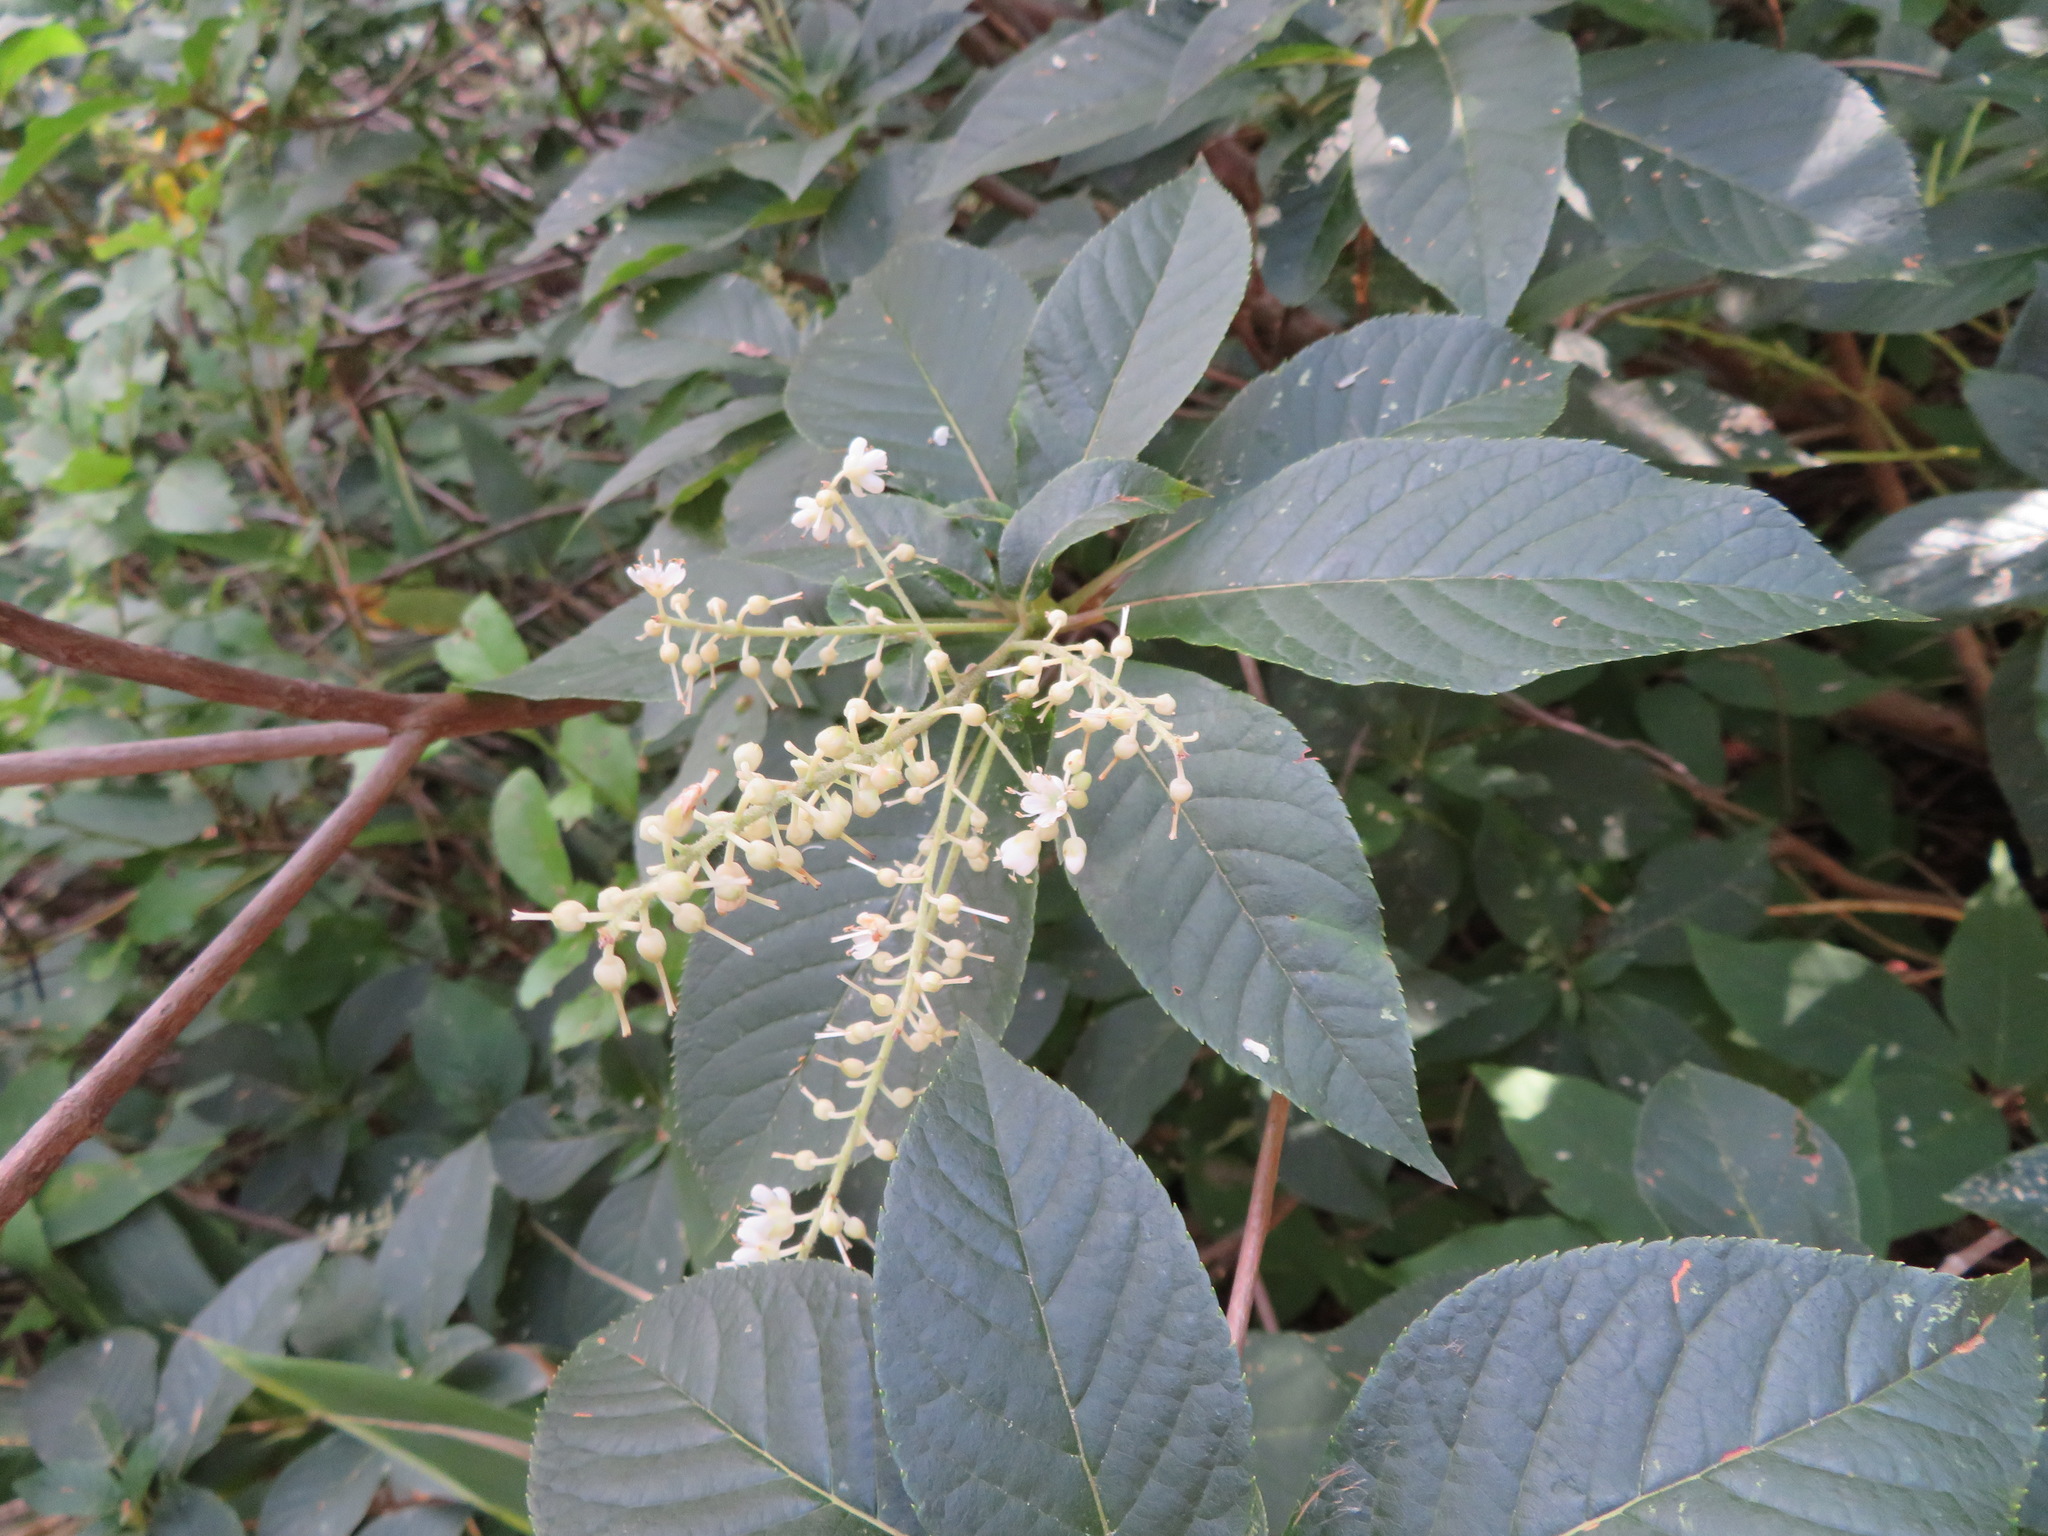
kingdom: Plantae
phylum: Tracheophyta
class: Magnoliopsida
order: Ericales
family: Clethraceae
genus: Clethra
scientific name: Clethra barbinervis
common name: Japanese clethra
